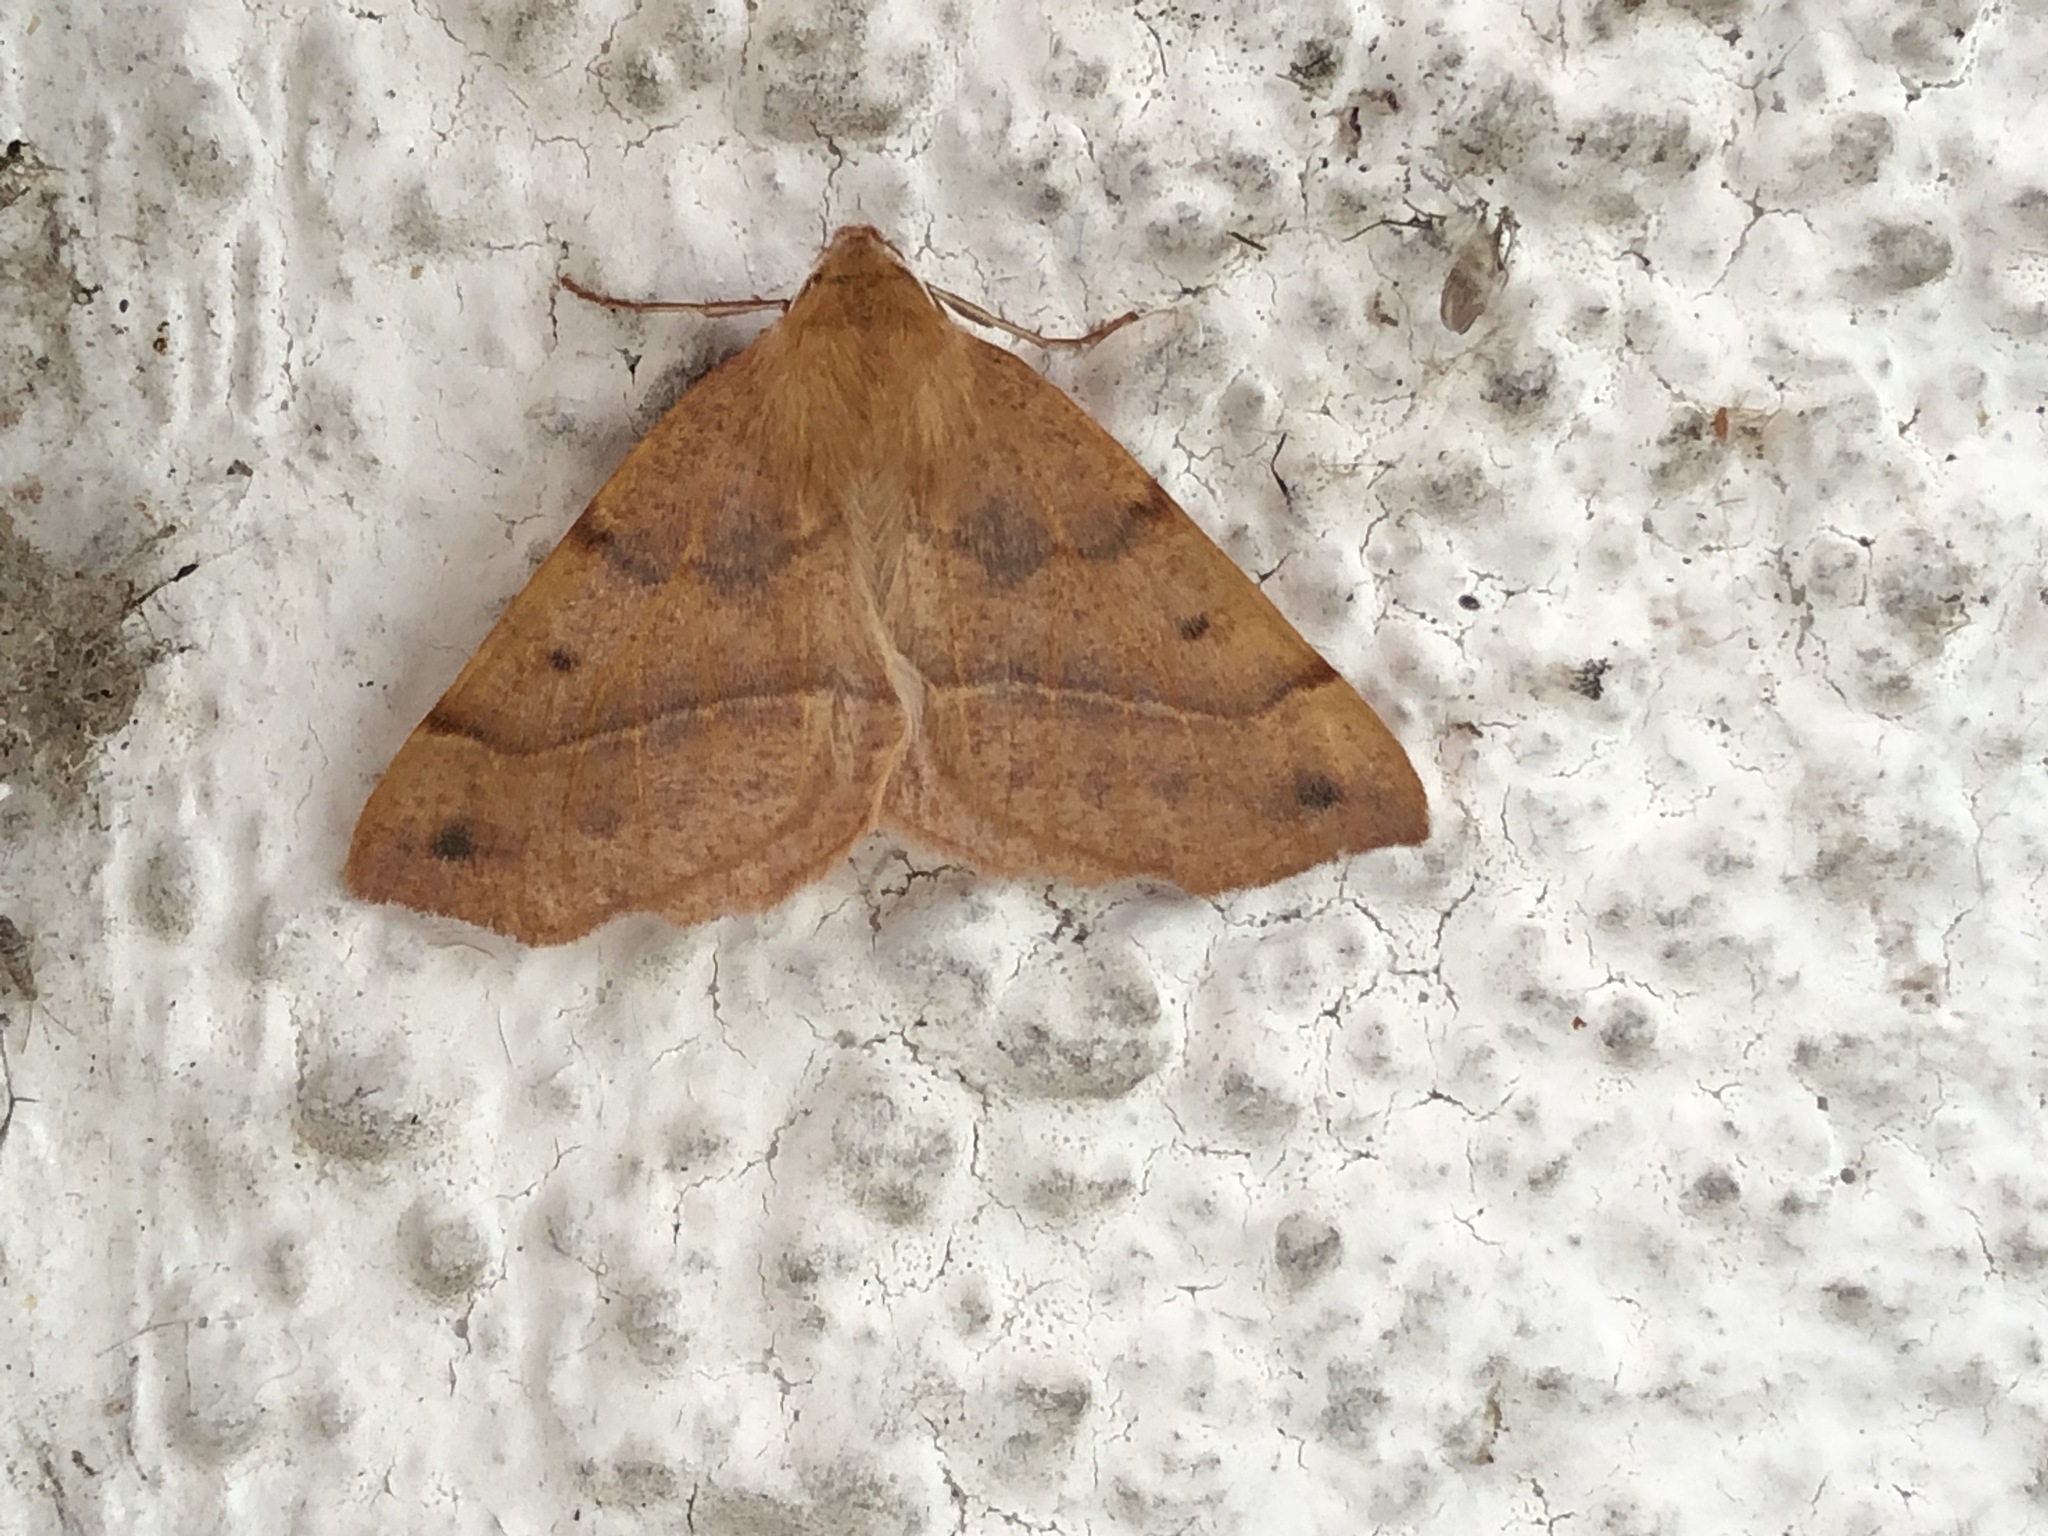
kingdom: Animalia
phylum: Arthropoda
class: Insecta
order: Lepidoptera
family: Geometridae
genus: Colotois
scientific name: Colotois pennaria
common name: Feathered thorn
